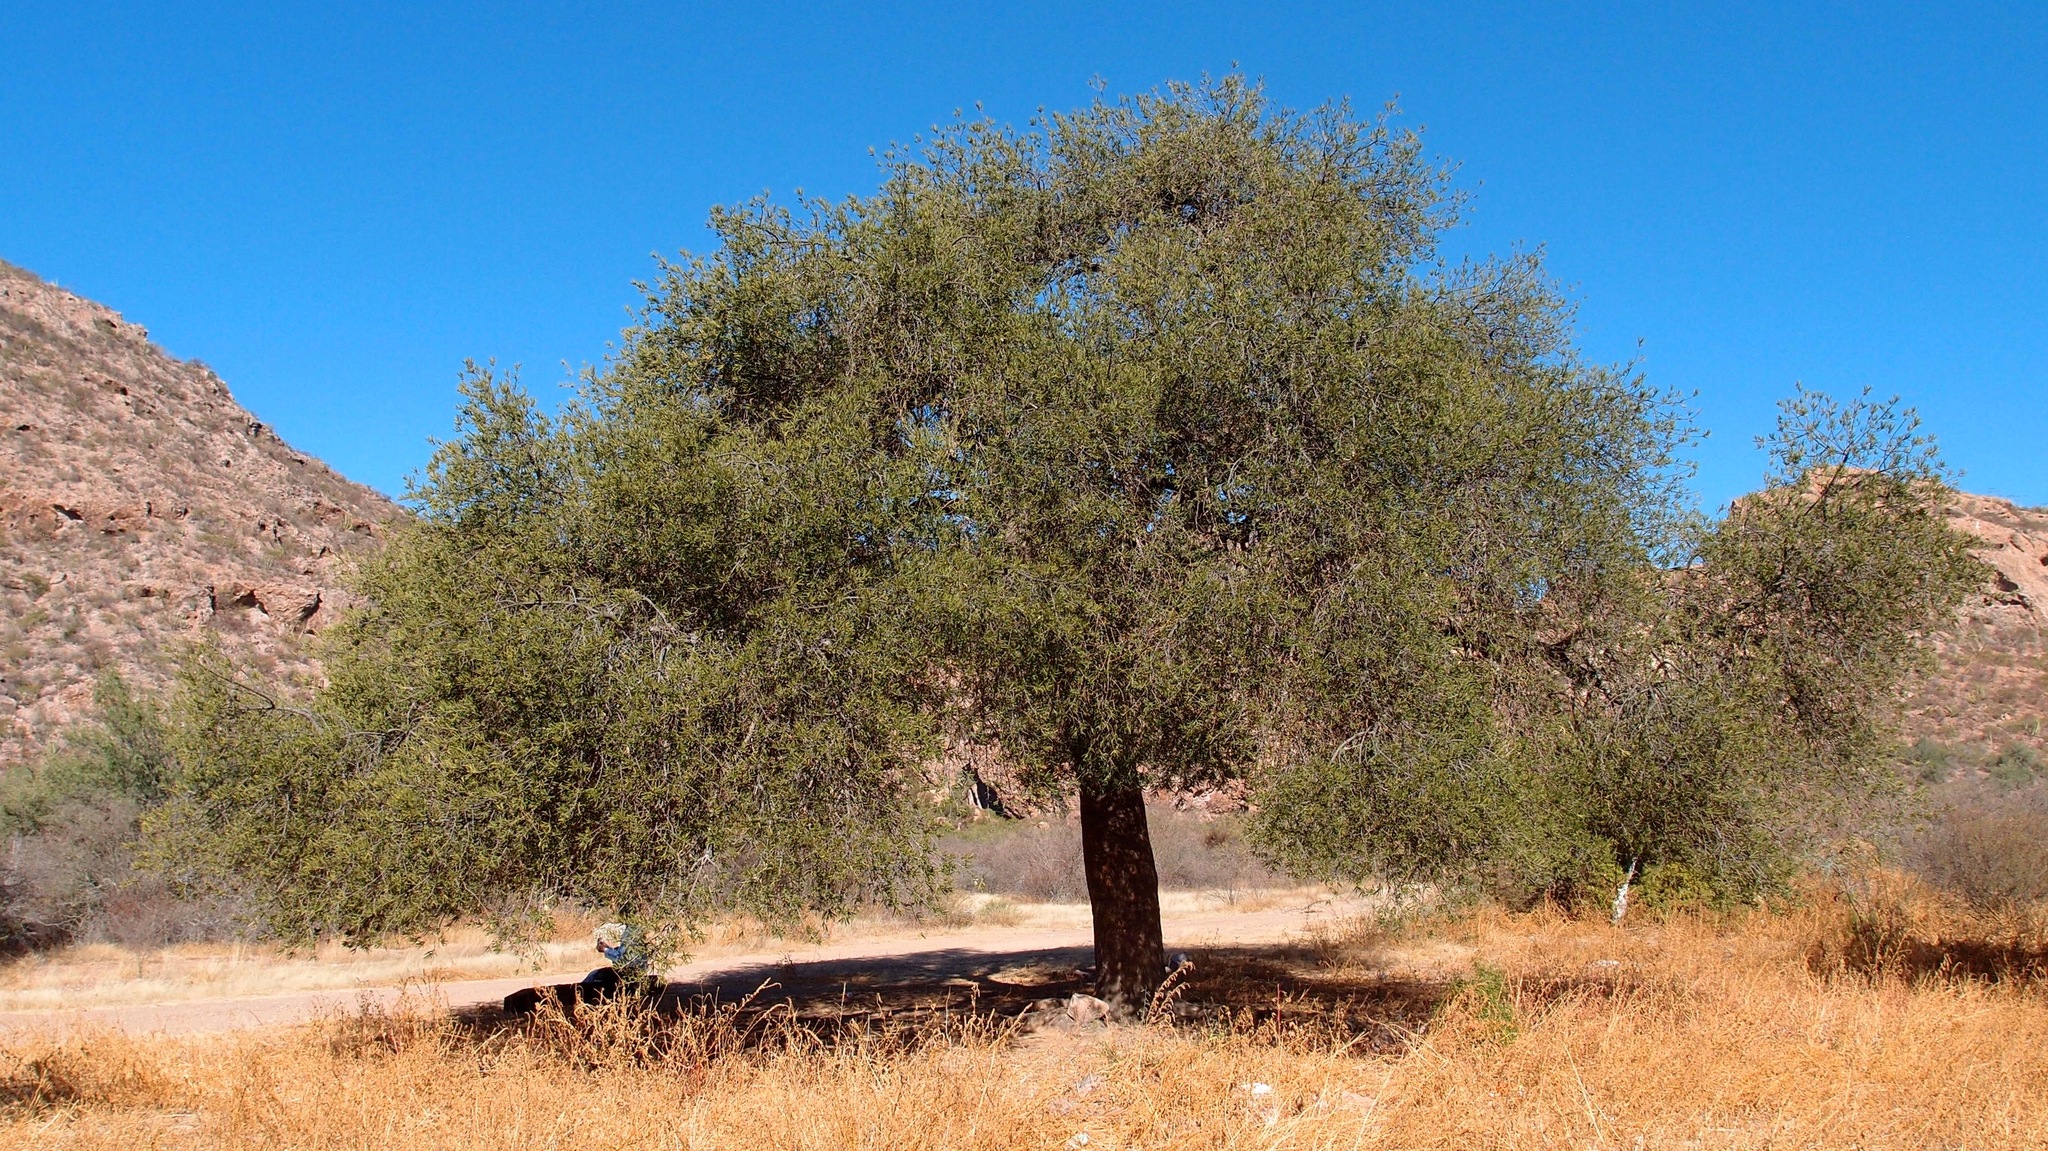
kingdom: Plantae
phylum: Tracheophyta
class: Magnoliopsida
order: Brassicales
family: Stixaceae
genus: Forchhammeria
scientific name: Forchhammeria watsonii
